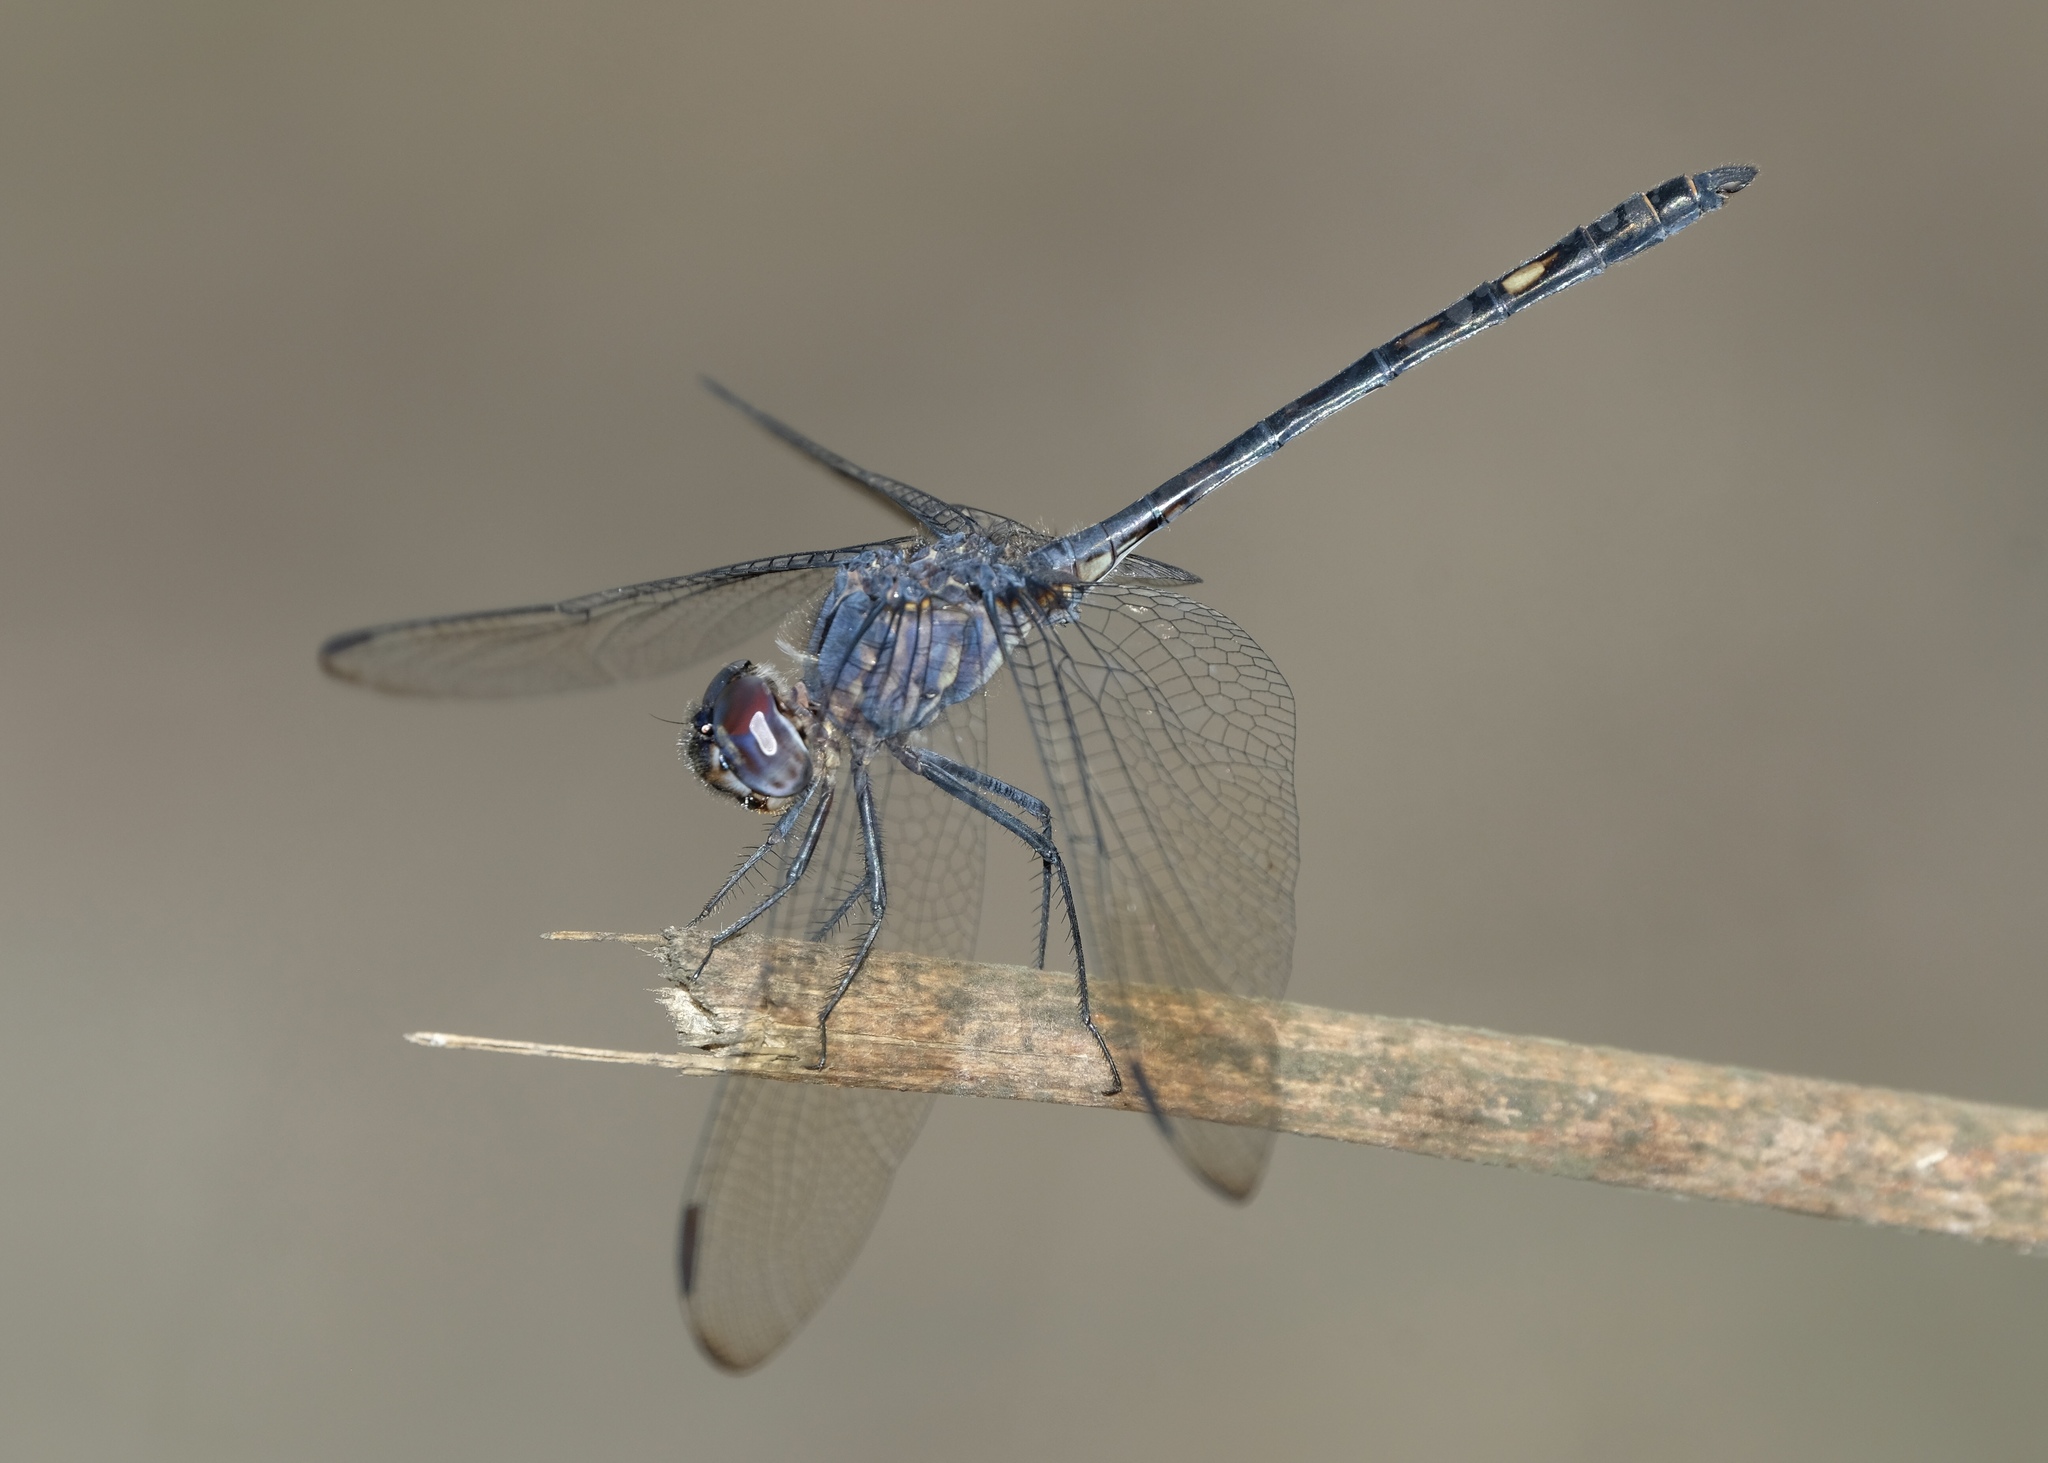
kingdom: Animalia
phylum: Arthropoda
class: Insecta
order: Odonata
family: Libellulidae
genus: Dythemis
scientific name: Dythemis nigrescens
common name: Black setwing
